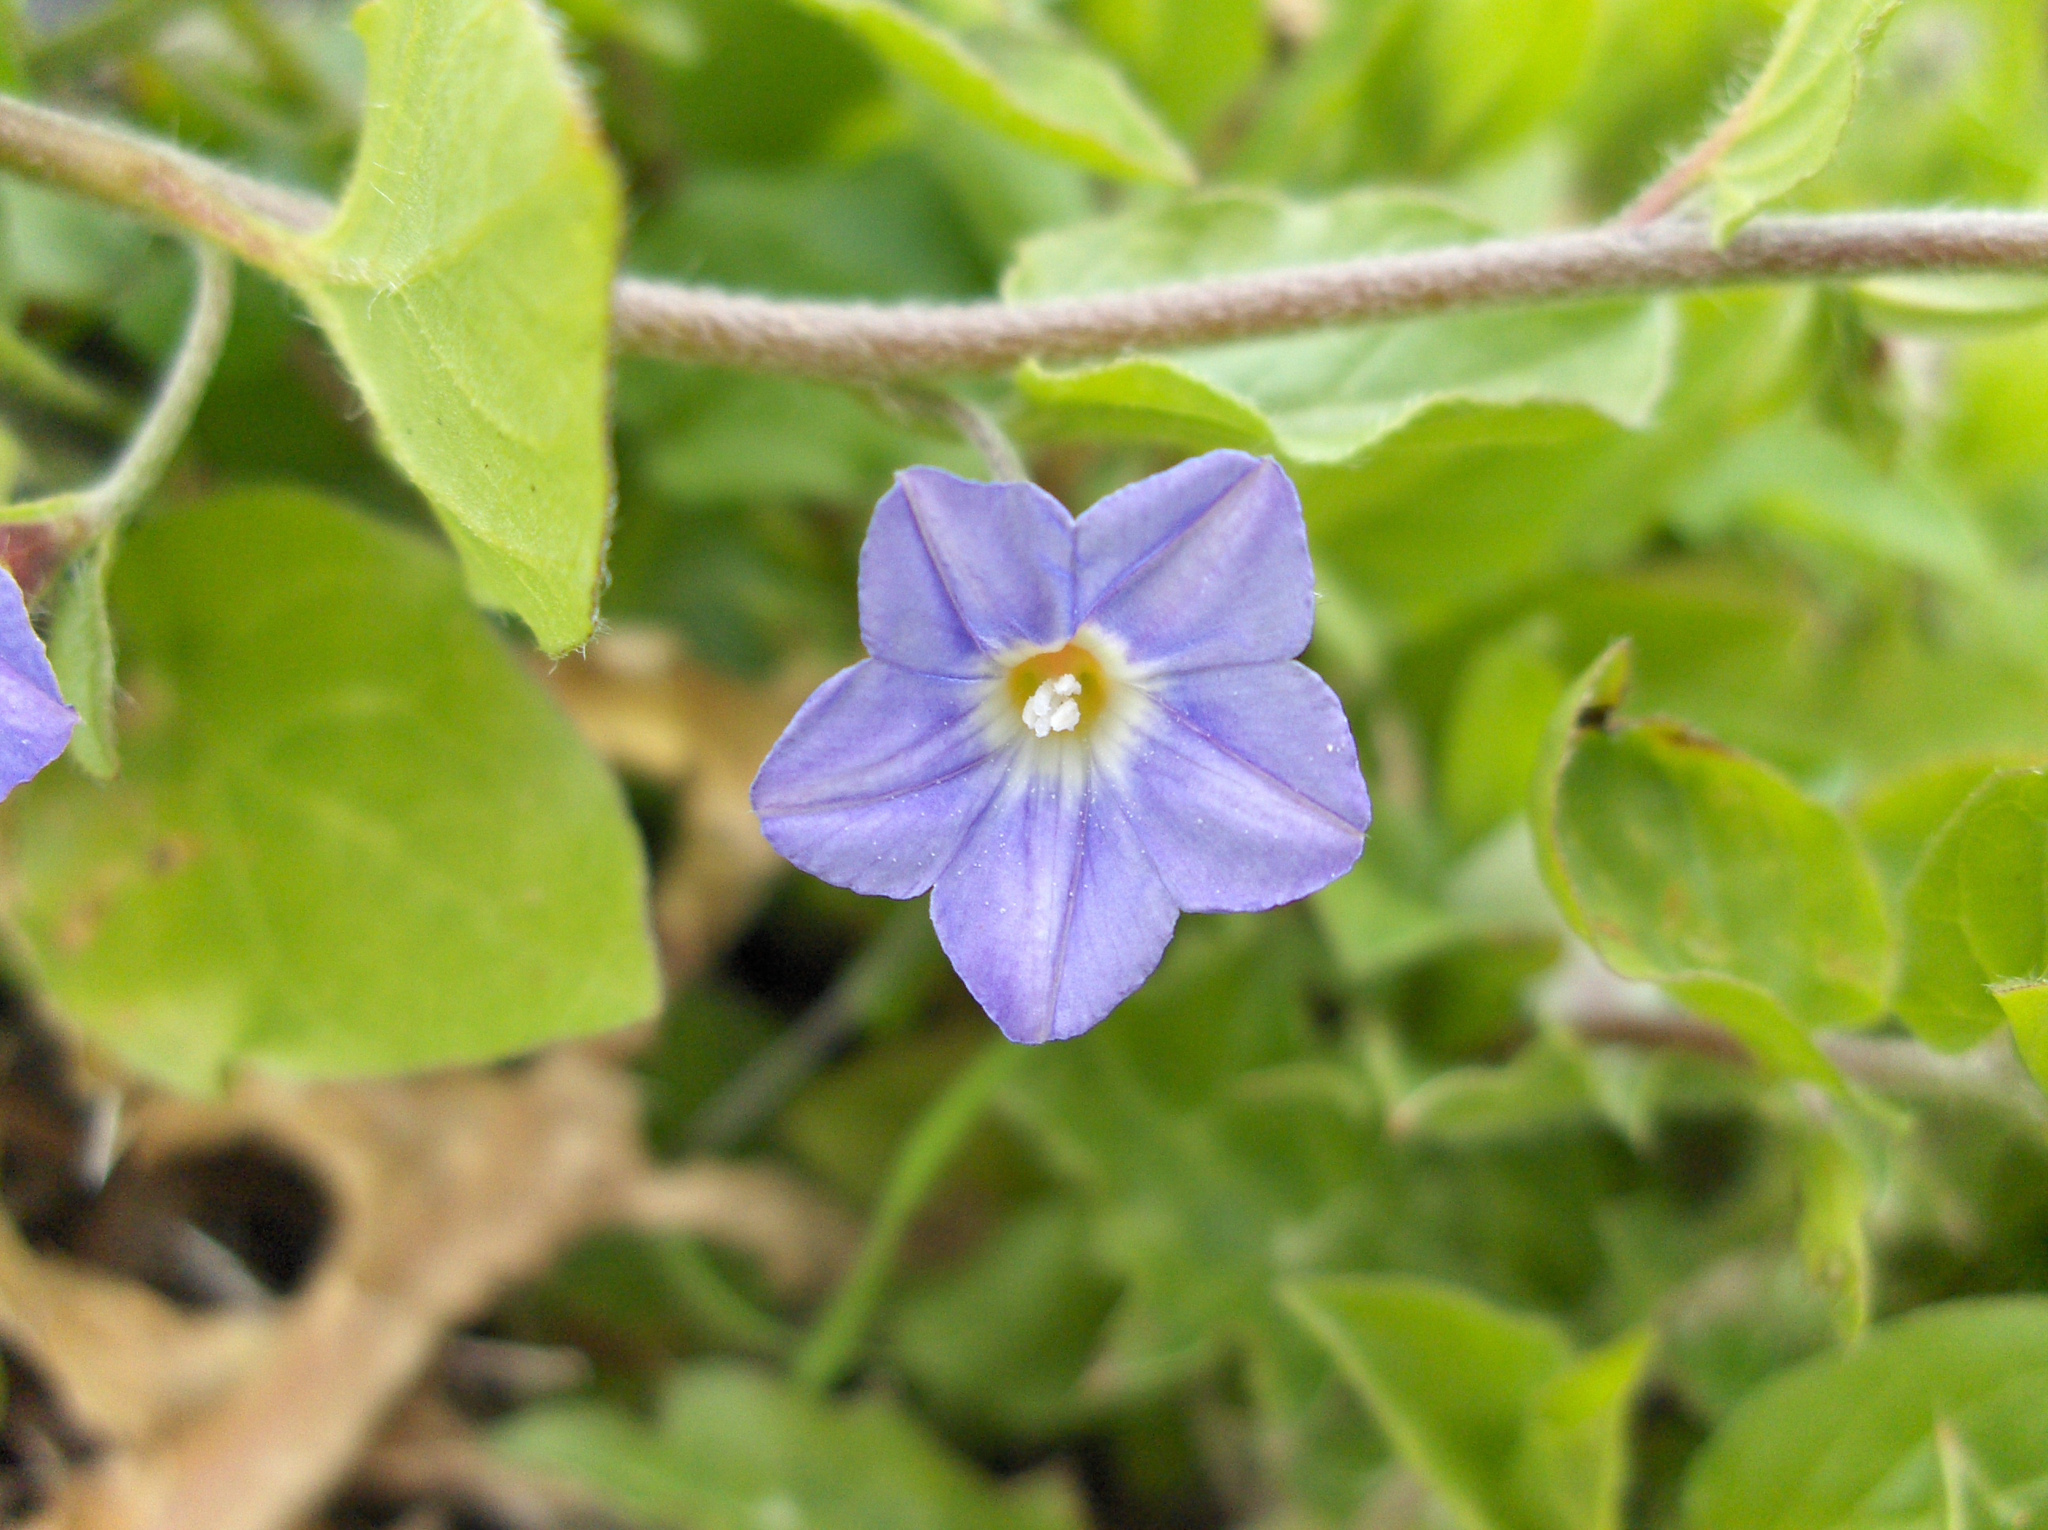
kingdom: Plantae
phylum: Tracheophyta
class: Magnoliopsida
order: Solanales
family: Convolvulaceae
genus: Convolvulus
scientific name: Convolvulus siculus
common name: Small blue-convolvulus
